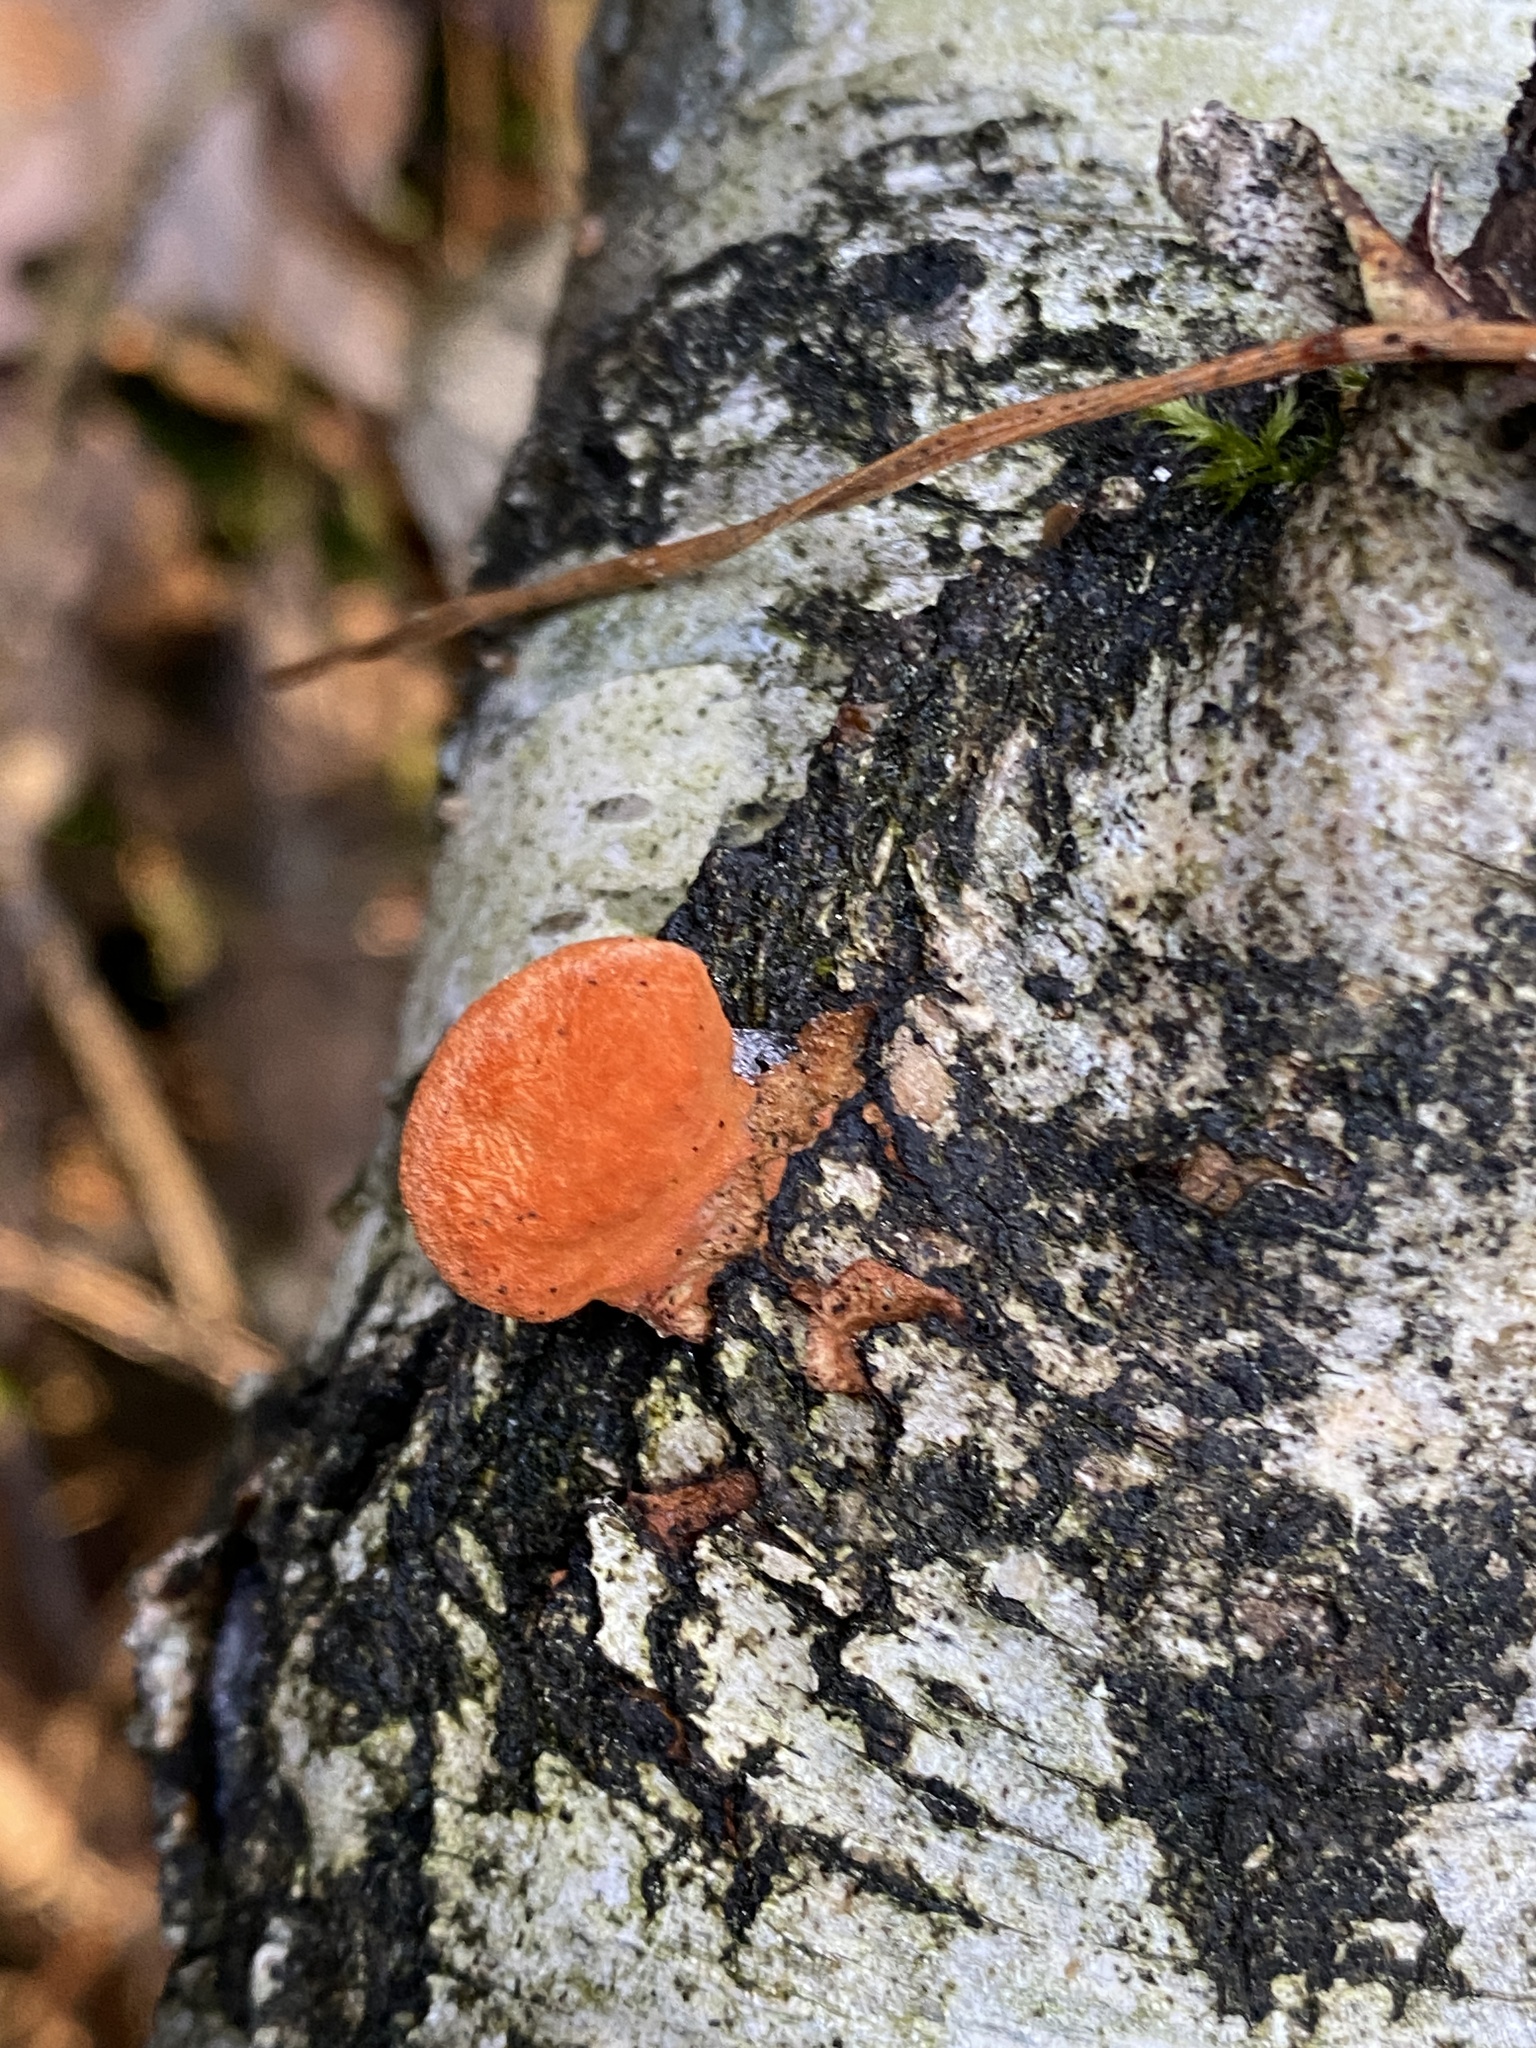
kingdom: Fungi
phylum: Basidiomycota
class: Agaricomycetes
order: Polyporales
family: Polyporaceae
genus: Trametes
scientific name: Trametes cinnabarina
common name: Northern cinnabar polypore
